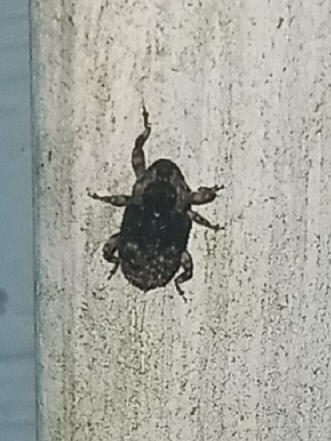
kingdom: Animalia
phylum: Arthropoda
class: Insecta
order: Coleoptera
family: Curculionidae
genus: Cophes
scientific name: Cophes fallax
